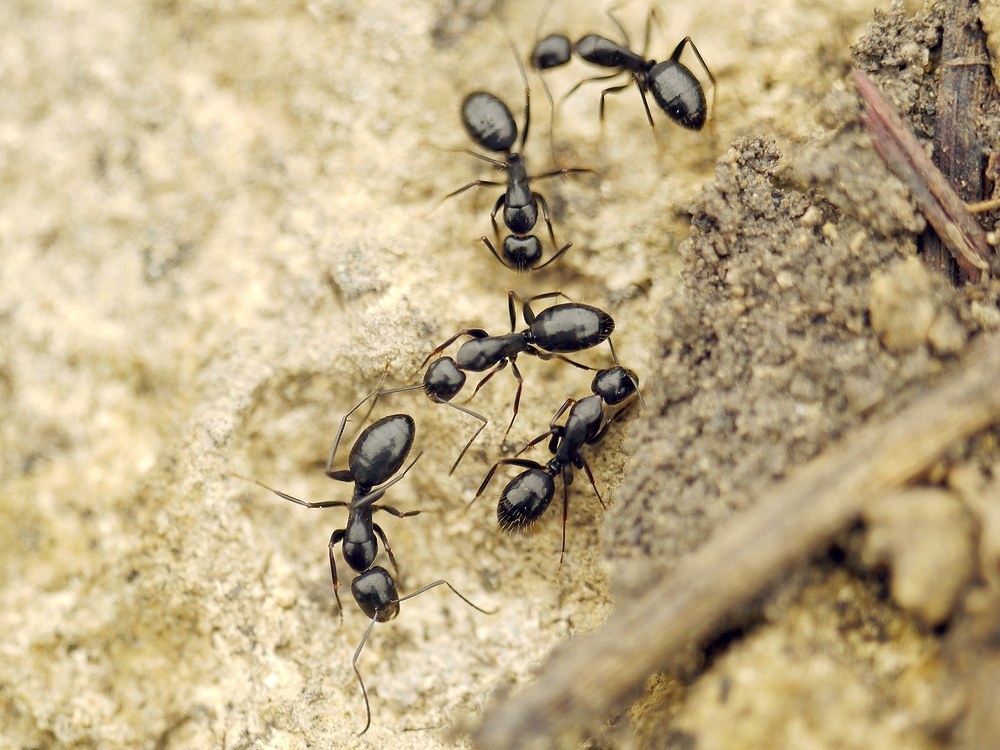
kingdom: Animalia
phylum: Arthropoda
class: Insecta
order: Hymenoptera
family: Formicidae
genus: Camponotus
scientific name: Camponotus aethiops
